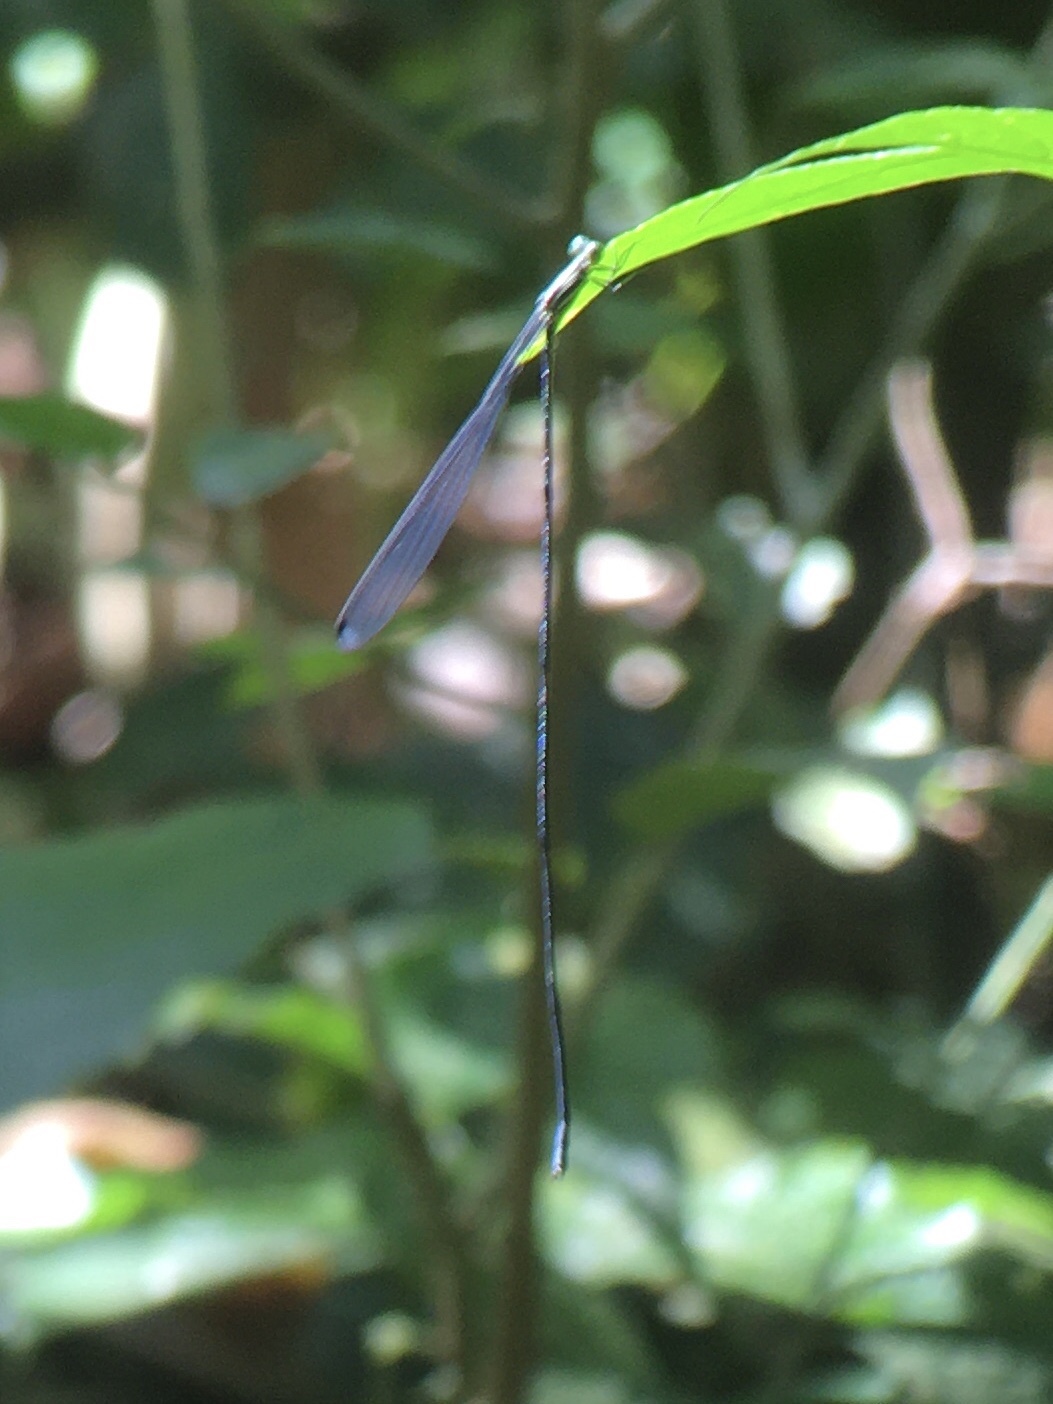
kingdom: Animalia
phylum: Arthropoda
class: Insecta
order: Odonata
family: Coenagrionidae
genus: Mecistogaster
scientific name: Mecistogaster linearis
